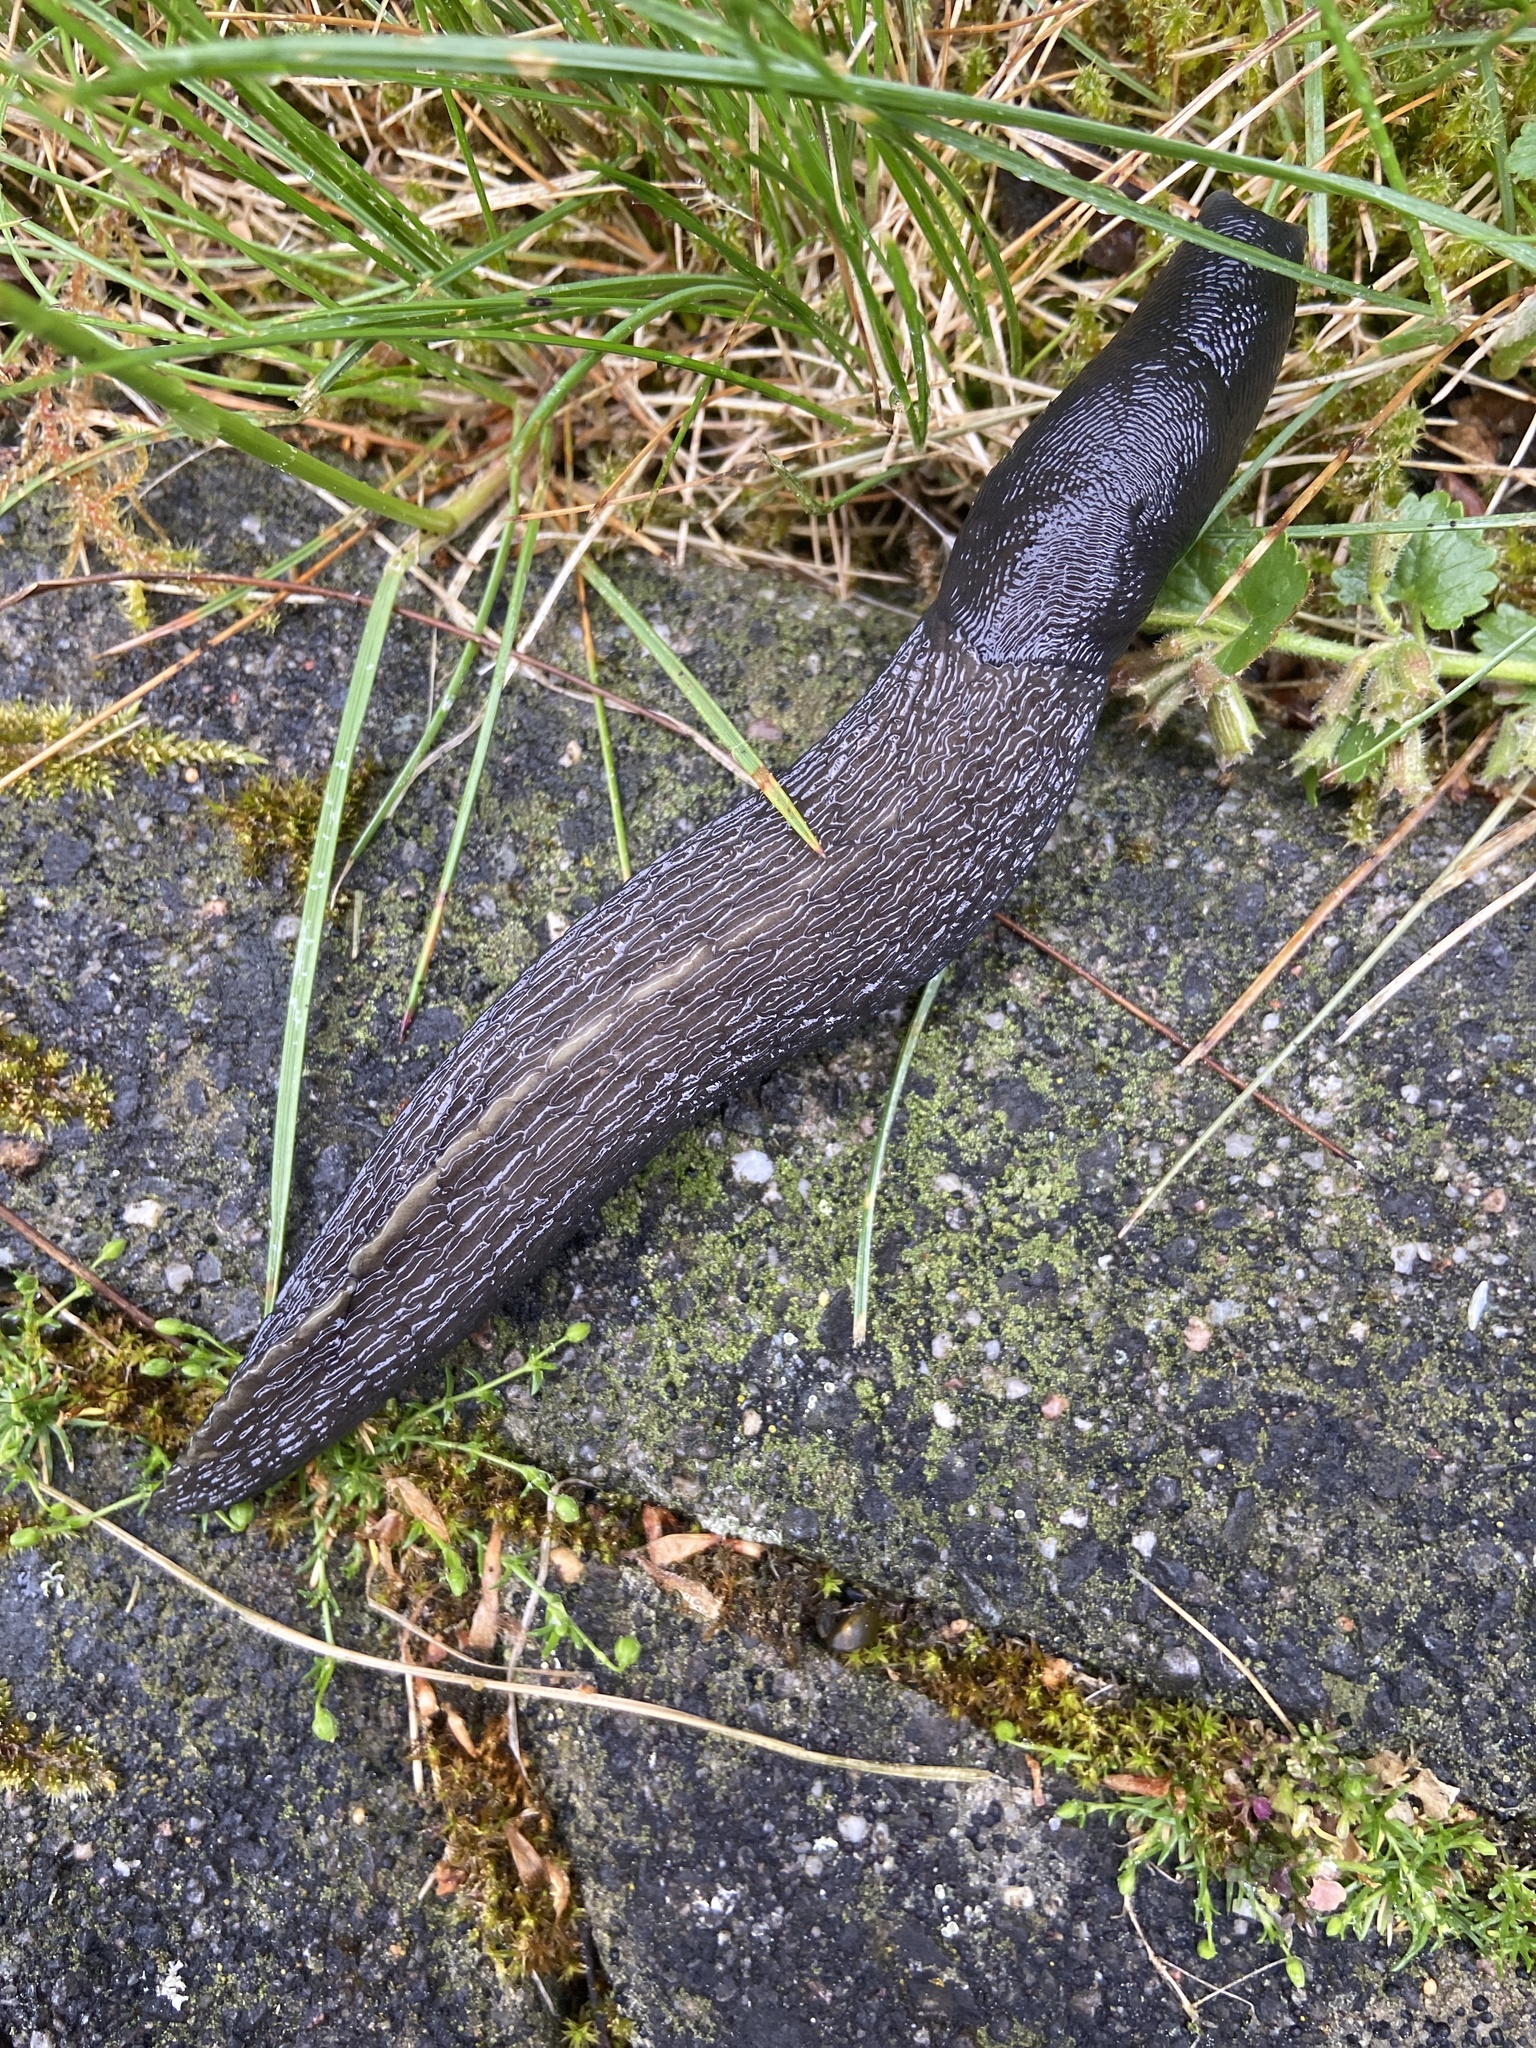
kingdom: Animalia
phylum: Mollusca
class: Gastropoda
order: Stylommatophora
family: Limacidae
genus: Limax
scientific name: Limax cinereoniger
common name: Ash-black slug
